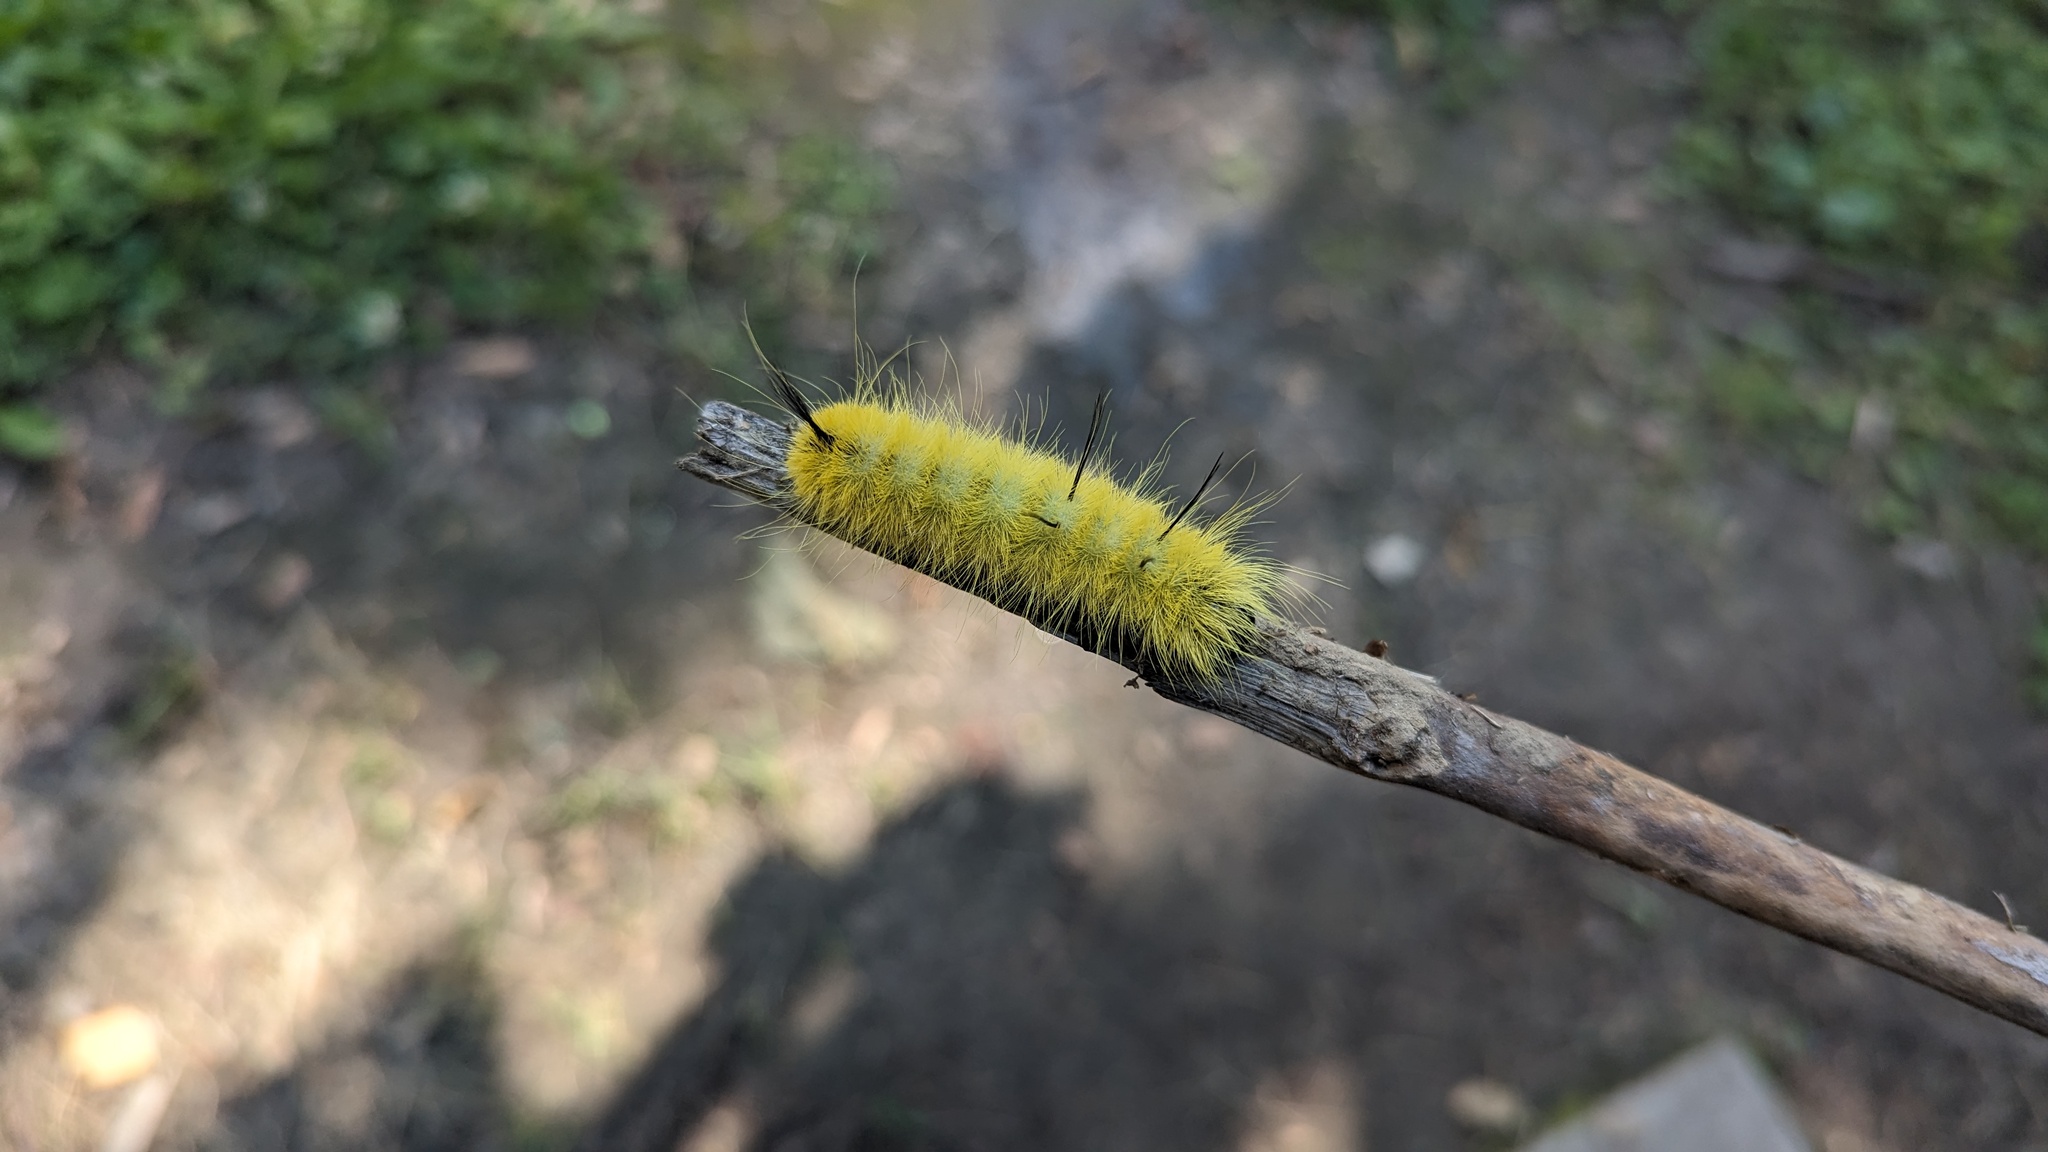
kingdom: Animalia
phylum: Arthropoda
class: Insecta
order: Lepidoptera
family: Noctuidae
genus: Acronicta
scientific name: Acronicta americana
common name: American dagger
